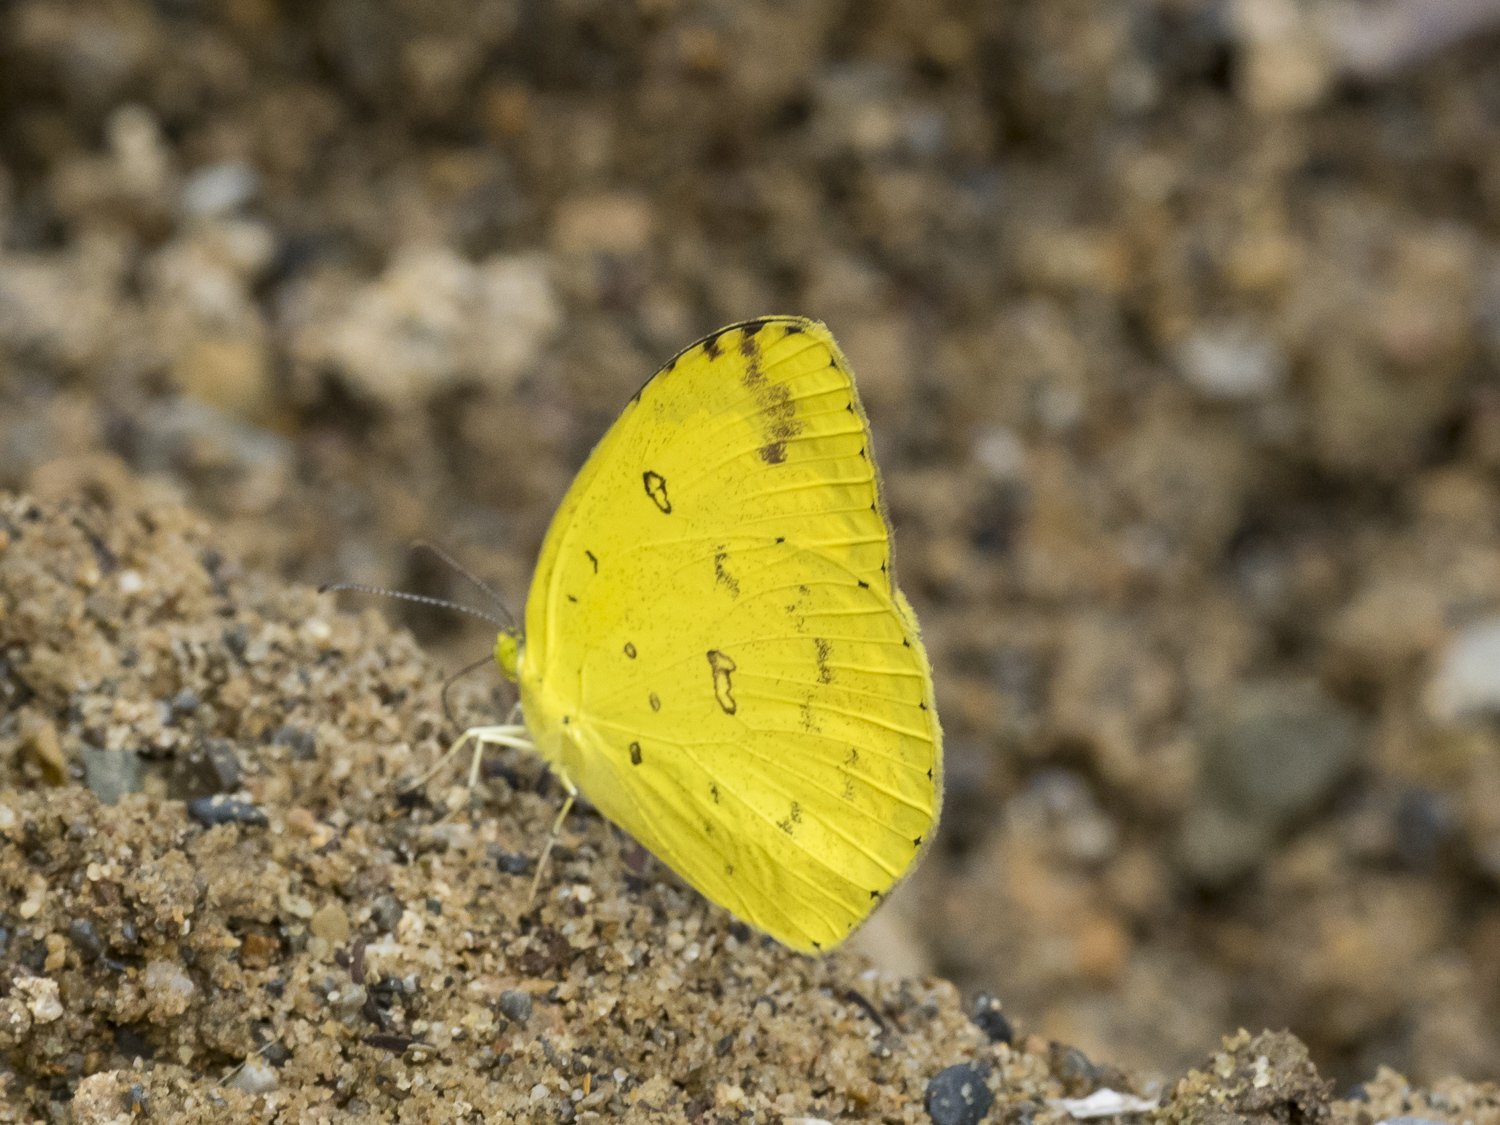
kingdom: Animalia
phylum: Arthropoda
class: Insecta
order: Lepidoptera
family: Pieridae
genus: Eurema
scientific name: Eurema blanda
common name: Three-spot grass yellow
